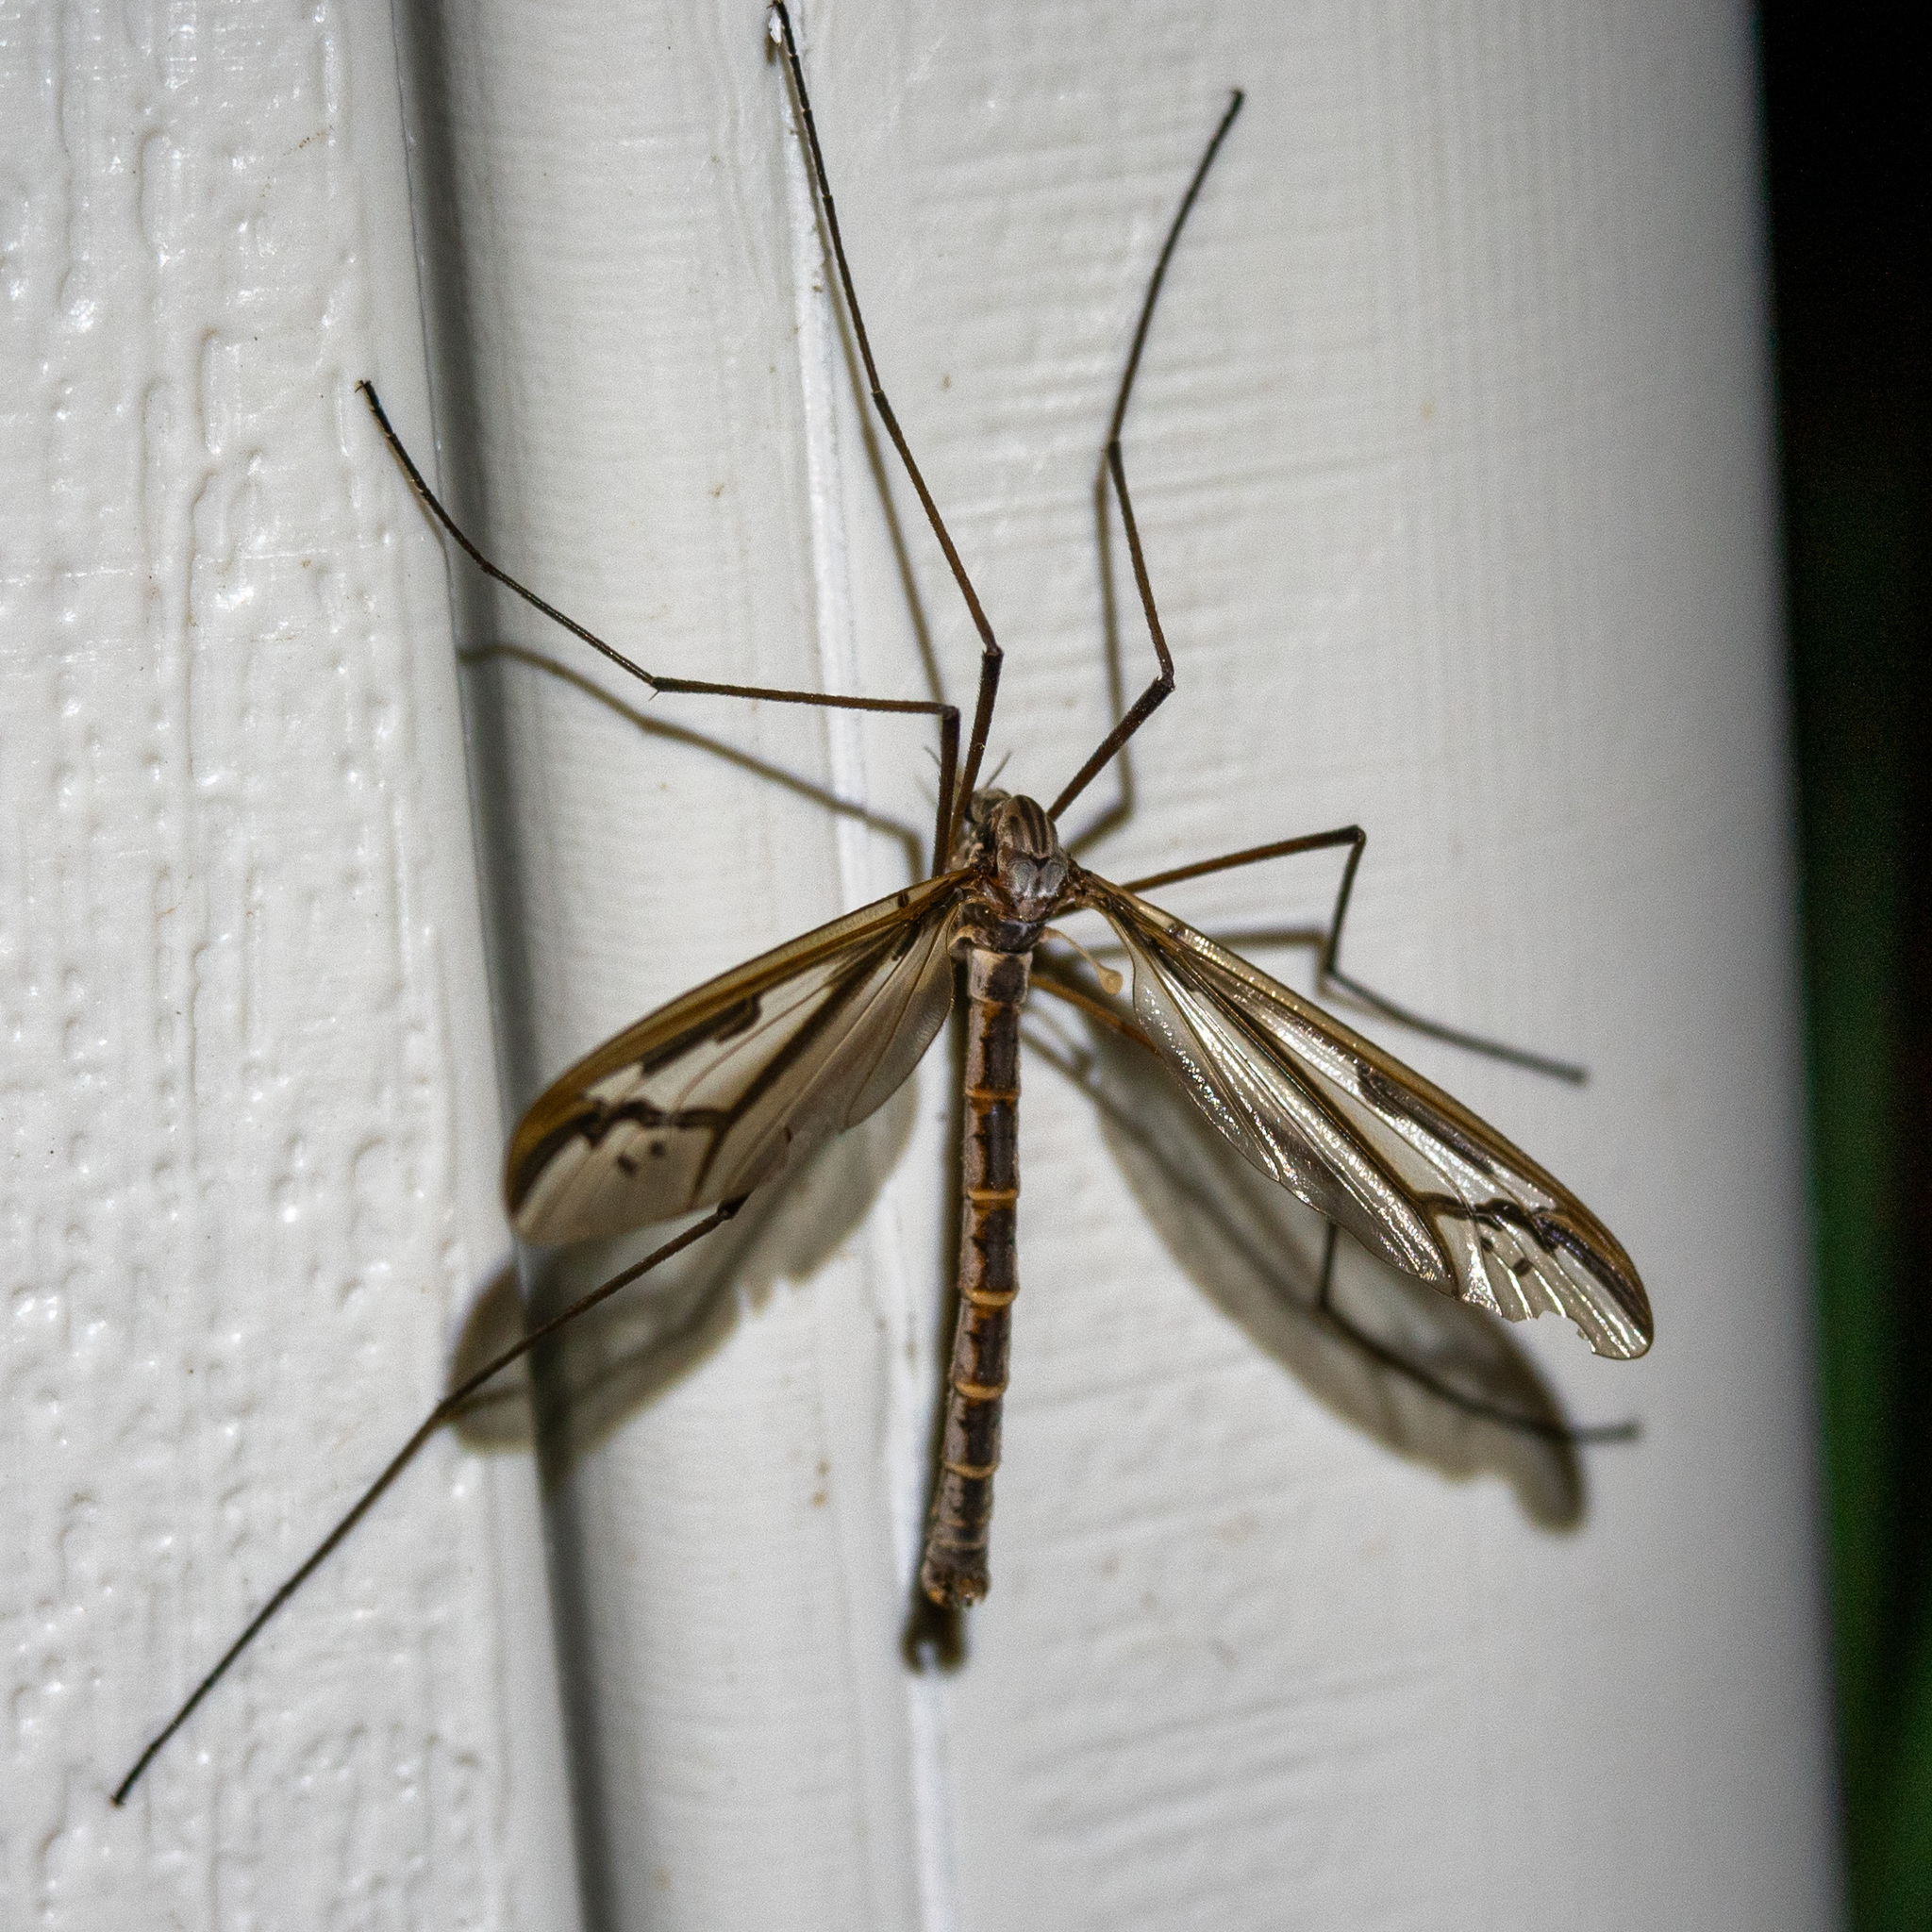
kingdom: Animalia
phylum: Arthropoda
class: Insecta
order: Diptera
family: Pediciidae
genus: Pedicia
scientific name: Pedicia procteriana
